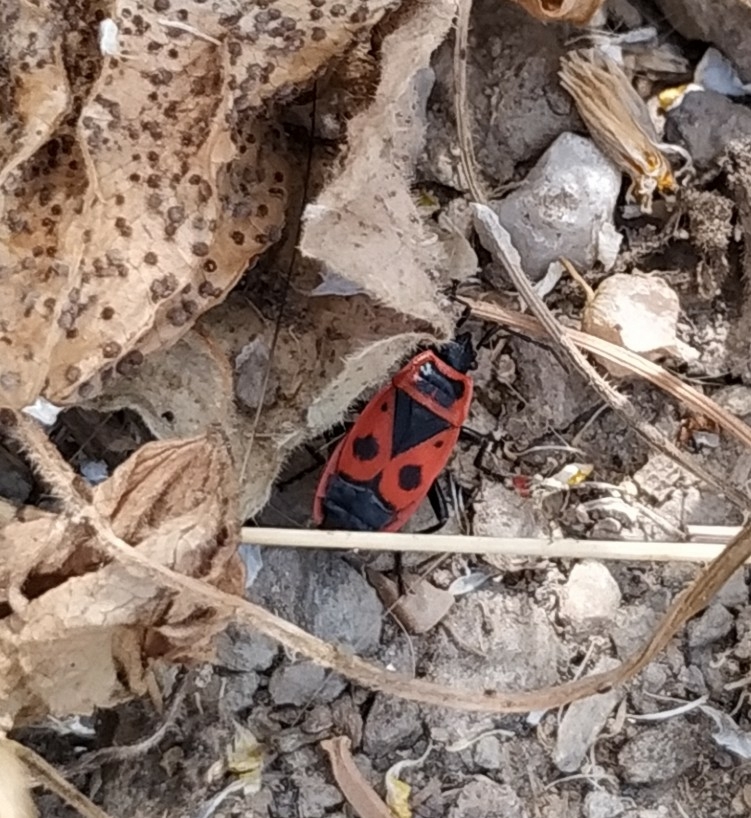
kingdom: Animalia
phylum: Arthropoda
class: Insecta
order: Hemiptera
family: Pyrrhocoridae
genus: Pyrrhocoris
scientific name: Pyrrhocoris apterus
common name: Firebug
